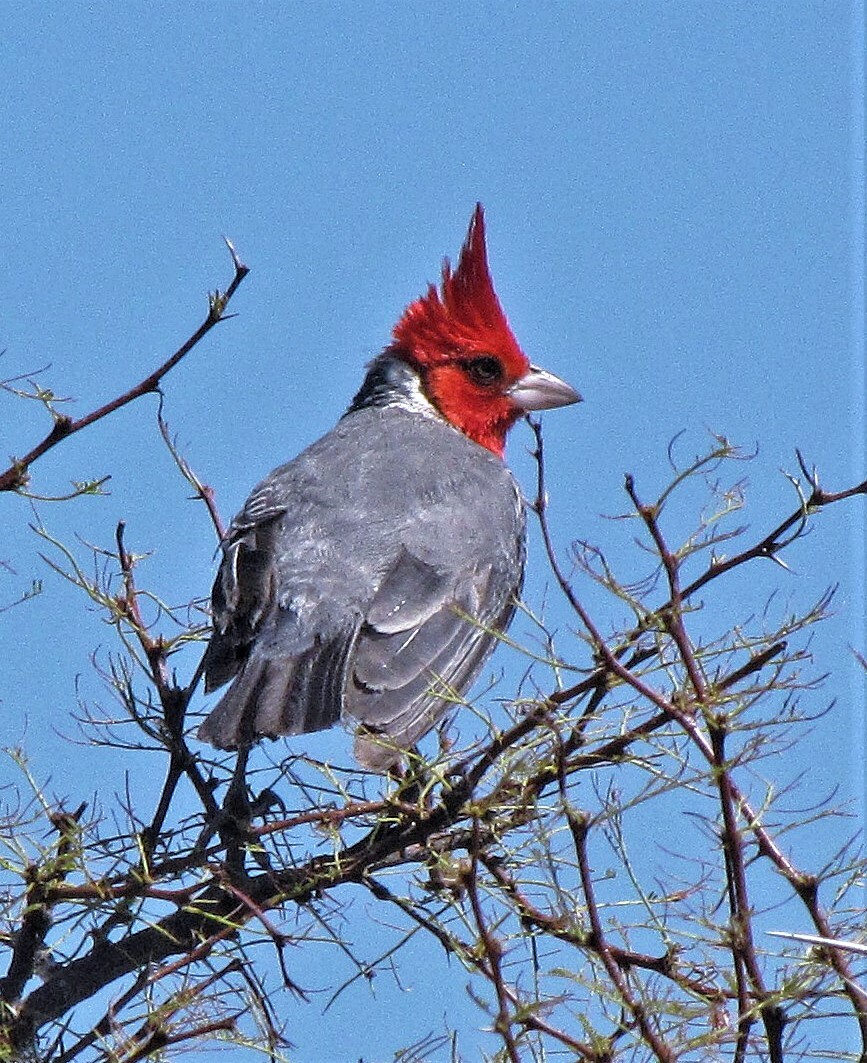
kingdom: Animalia
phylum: Chordata
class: Aves
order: Passeriformes
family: Thraupidae
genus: Paroaria
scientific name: Paroaria coronata
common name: Red-crested cardinal
